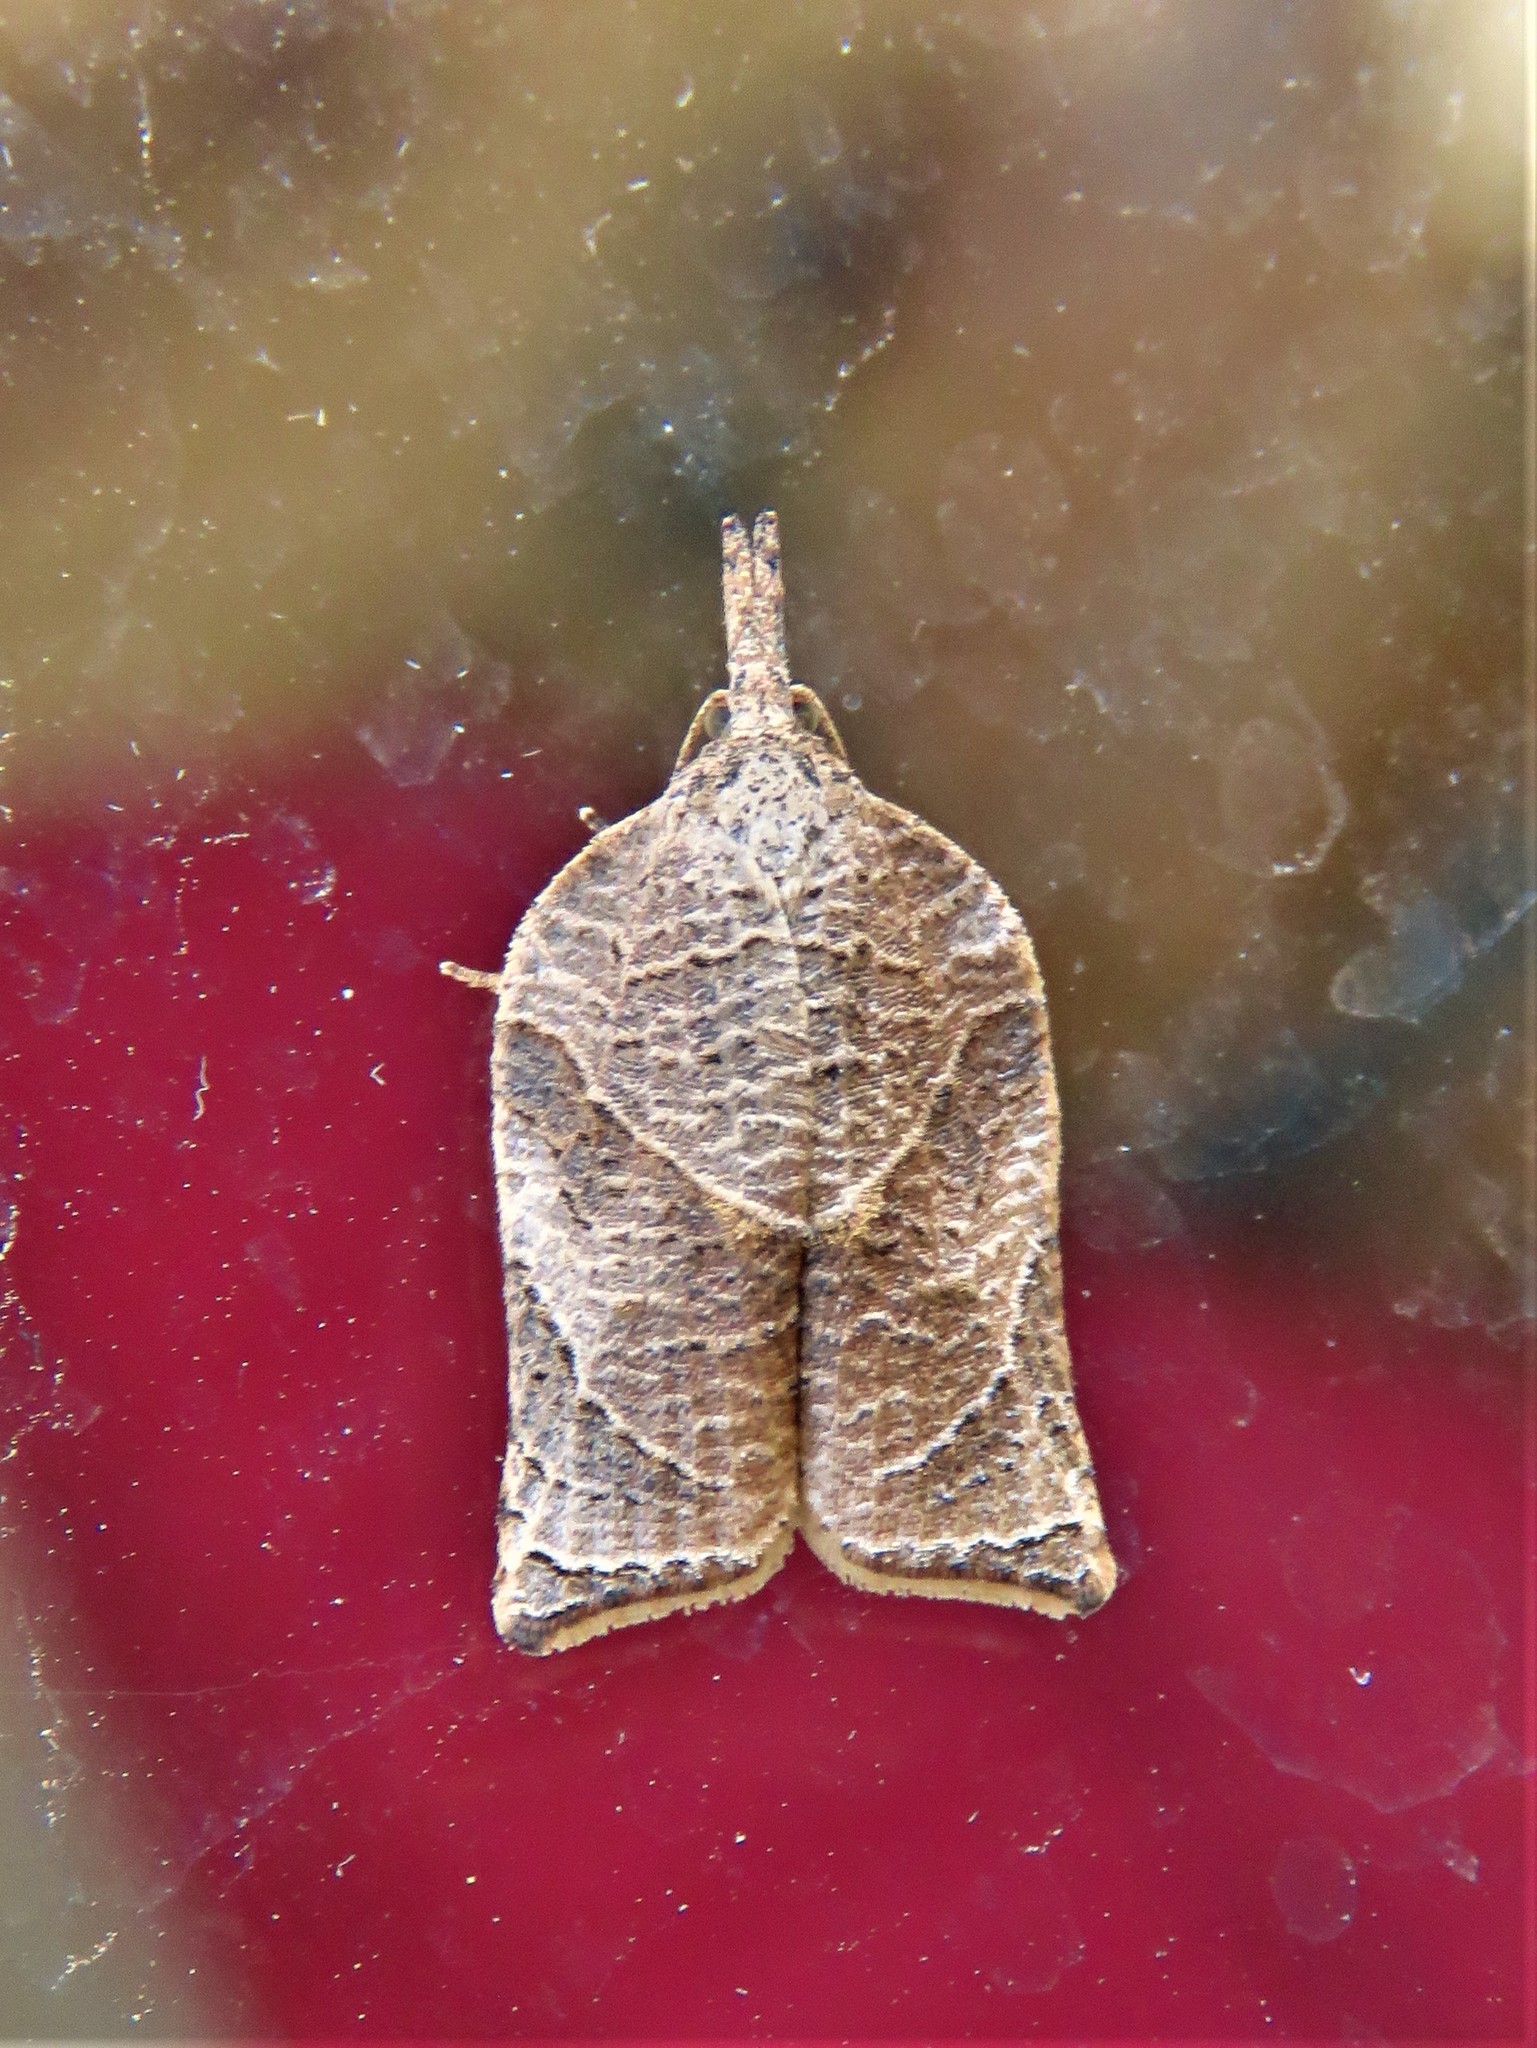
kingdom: Animalia
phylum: Arthropoda
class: Insecta
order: Lepidoptera
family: Tortricidae
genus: Platynota
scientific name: Platynota rostrana
